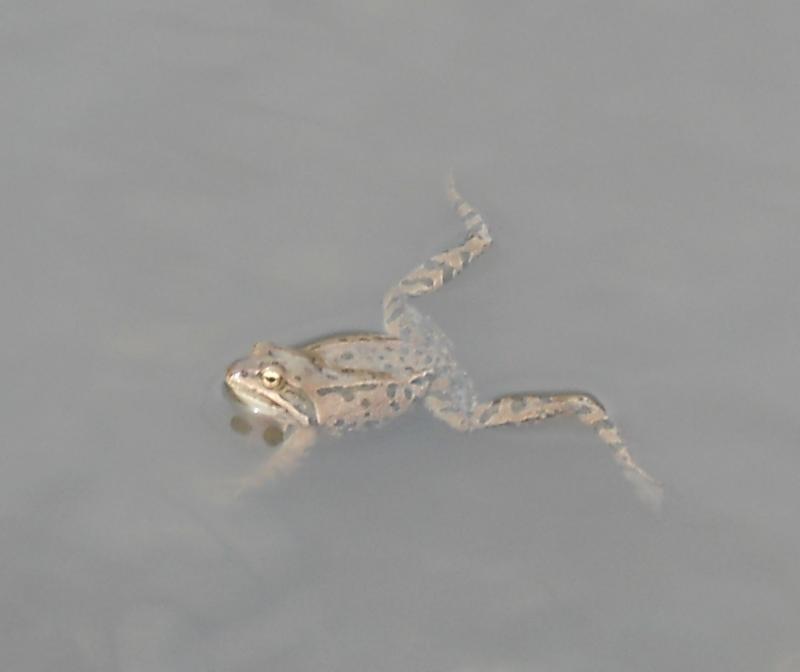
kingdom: Animalia
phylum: Chordata
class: Amphibia
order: Anura
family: Ranidae
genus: Rana
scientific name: Rana macrocnemis
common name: Banded frog
